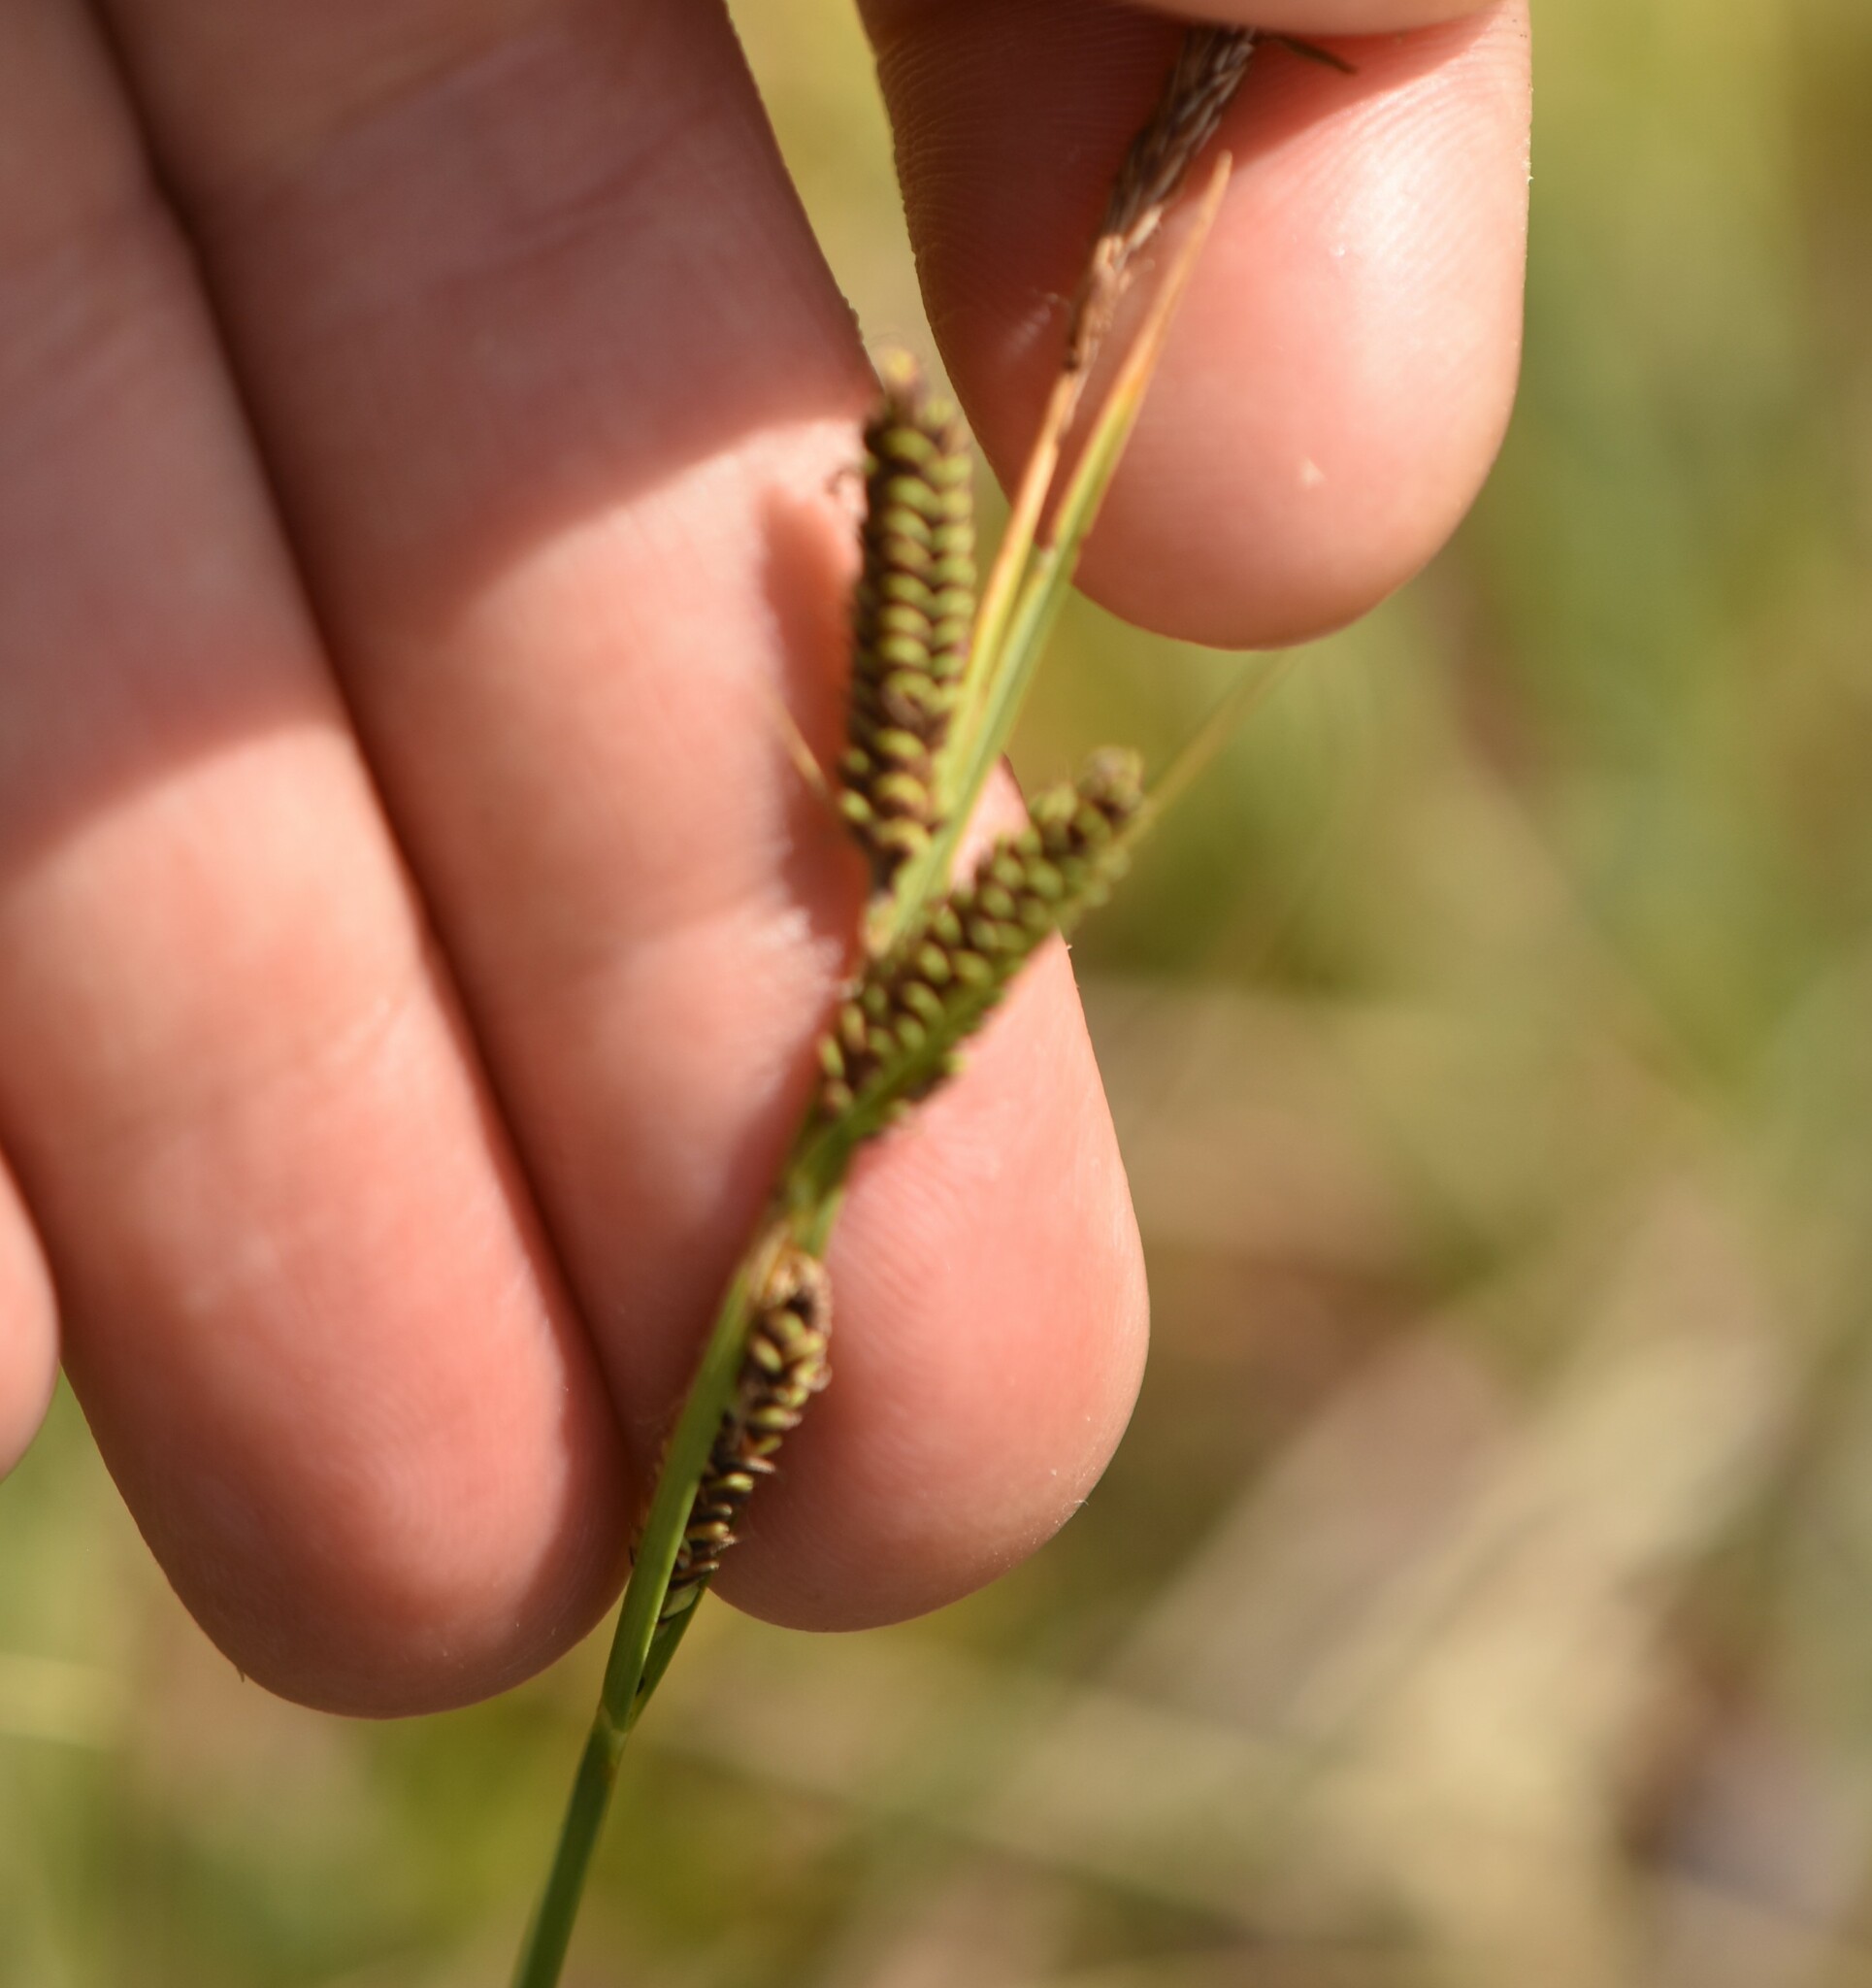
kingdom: Plantae
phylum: Tracheophyta
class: Liliopsida
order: Poales
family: Cyperaceae
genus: Carex
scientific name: Carex nigra
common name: Common sedge
